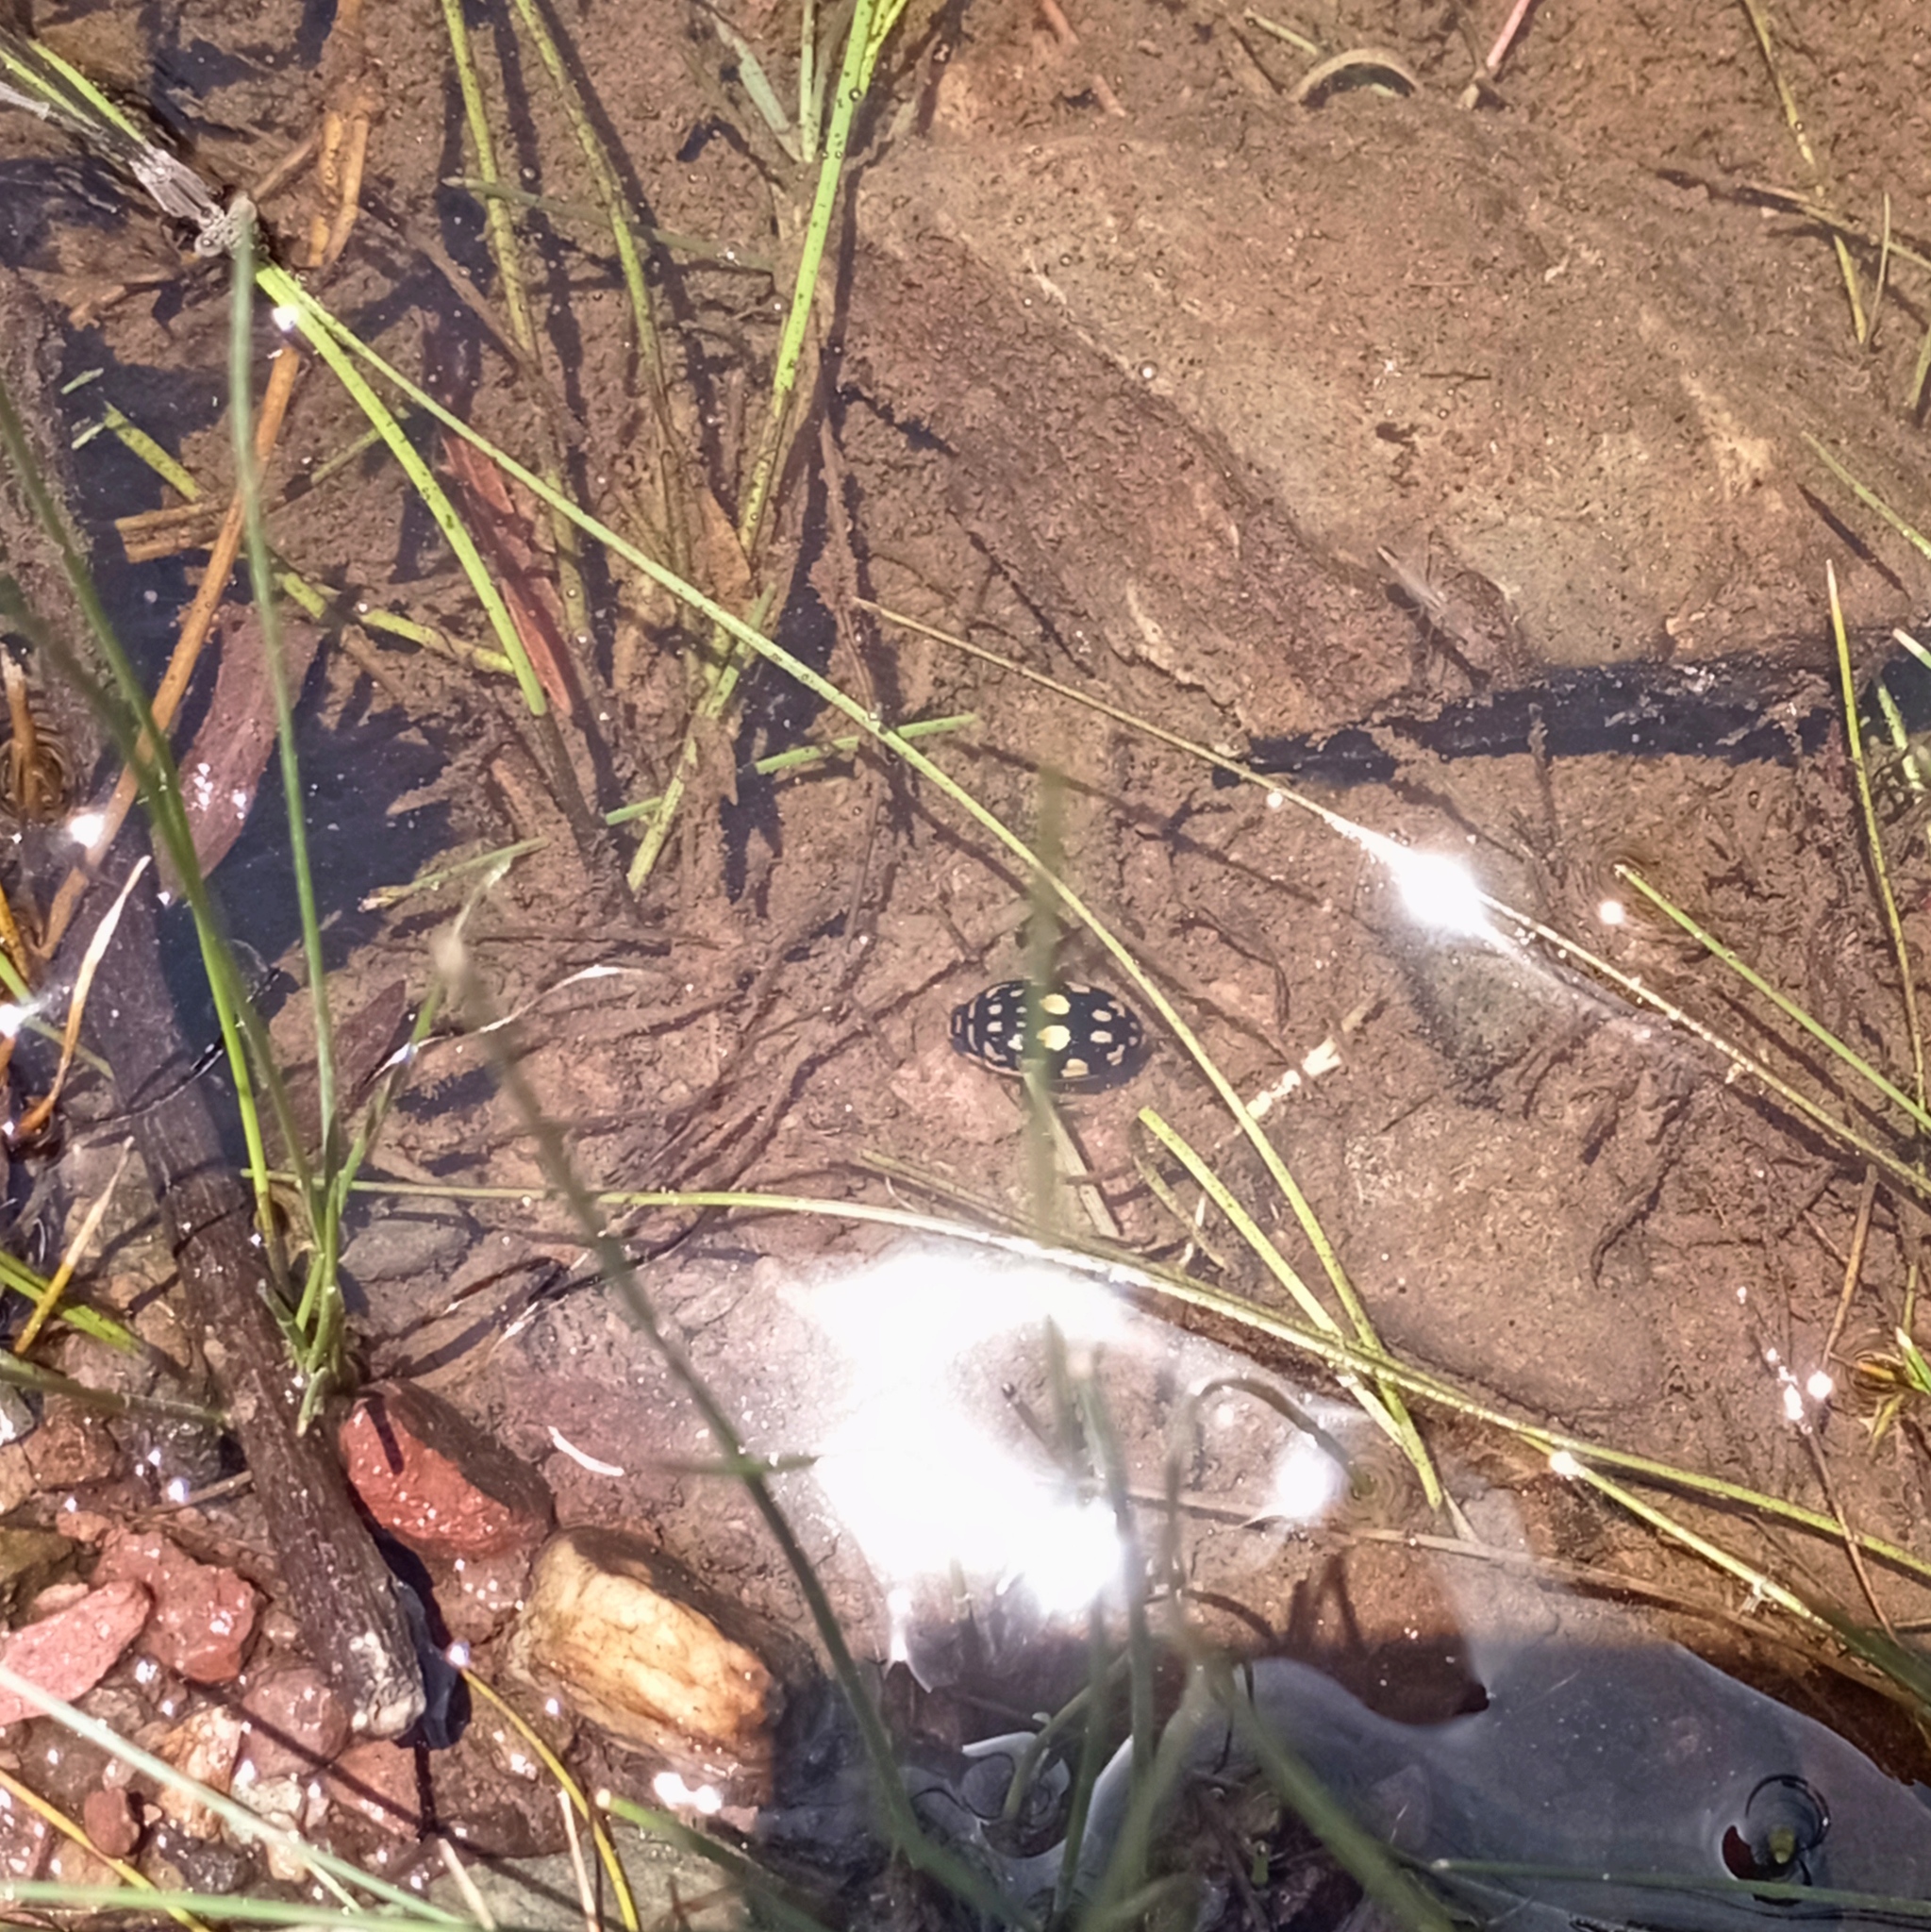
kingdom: Animalia
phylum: Arthropoda
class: Insecta
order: Coleoptera
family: Dytiscidae
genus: Thermonectus
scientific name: Thermonectus marmoratus
